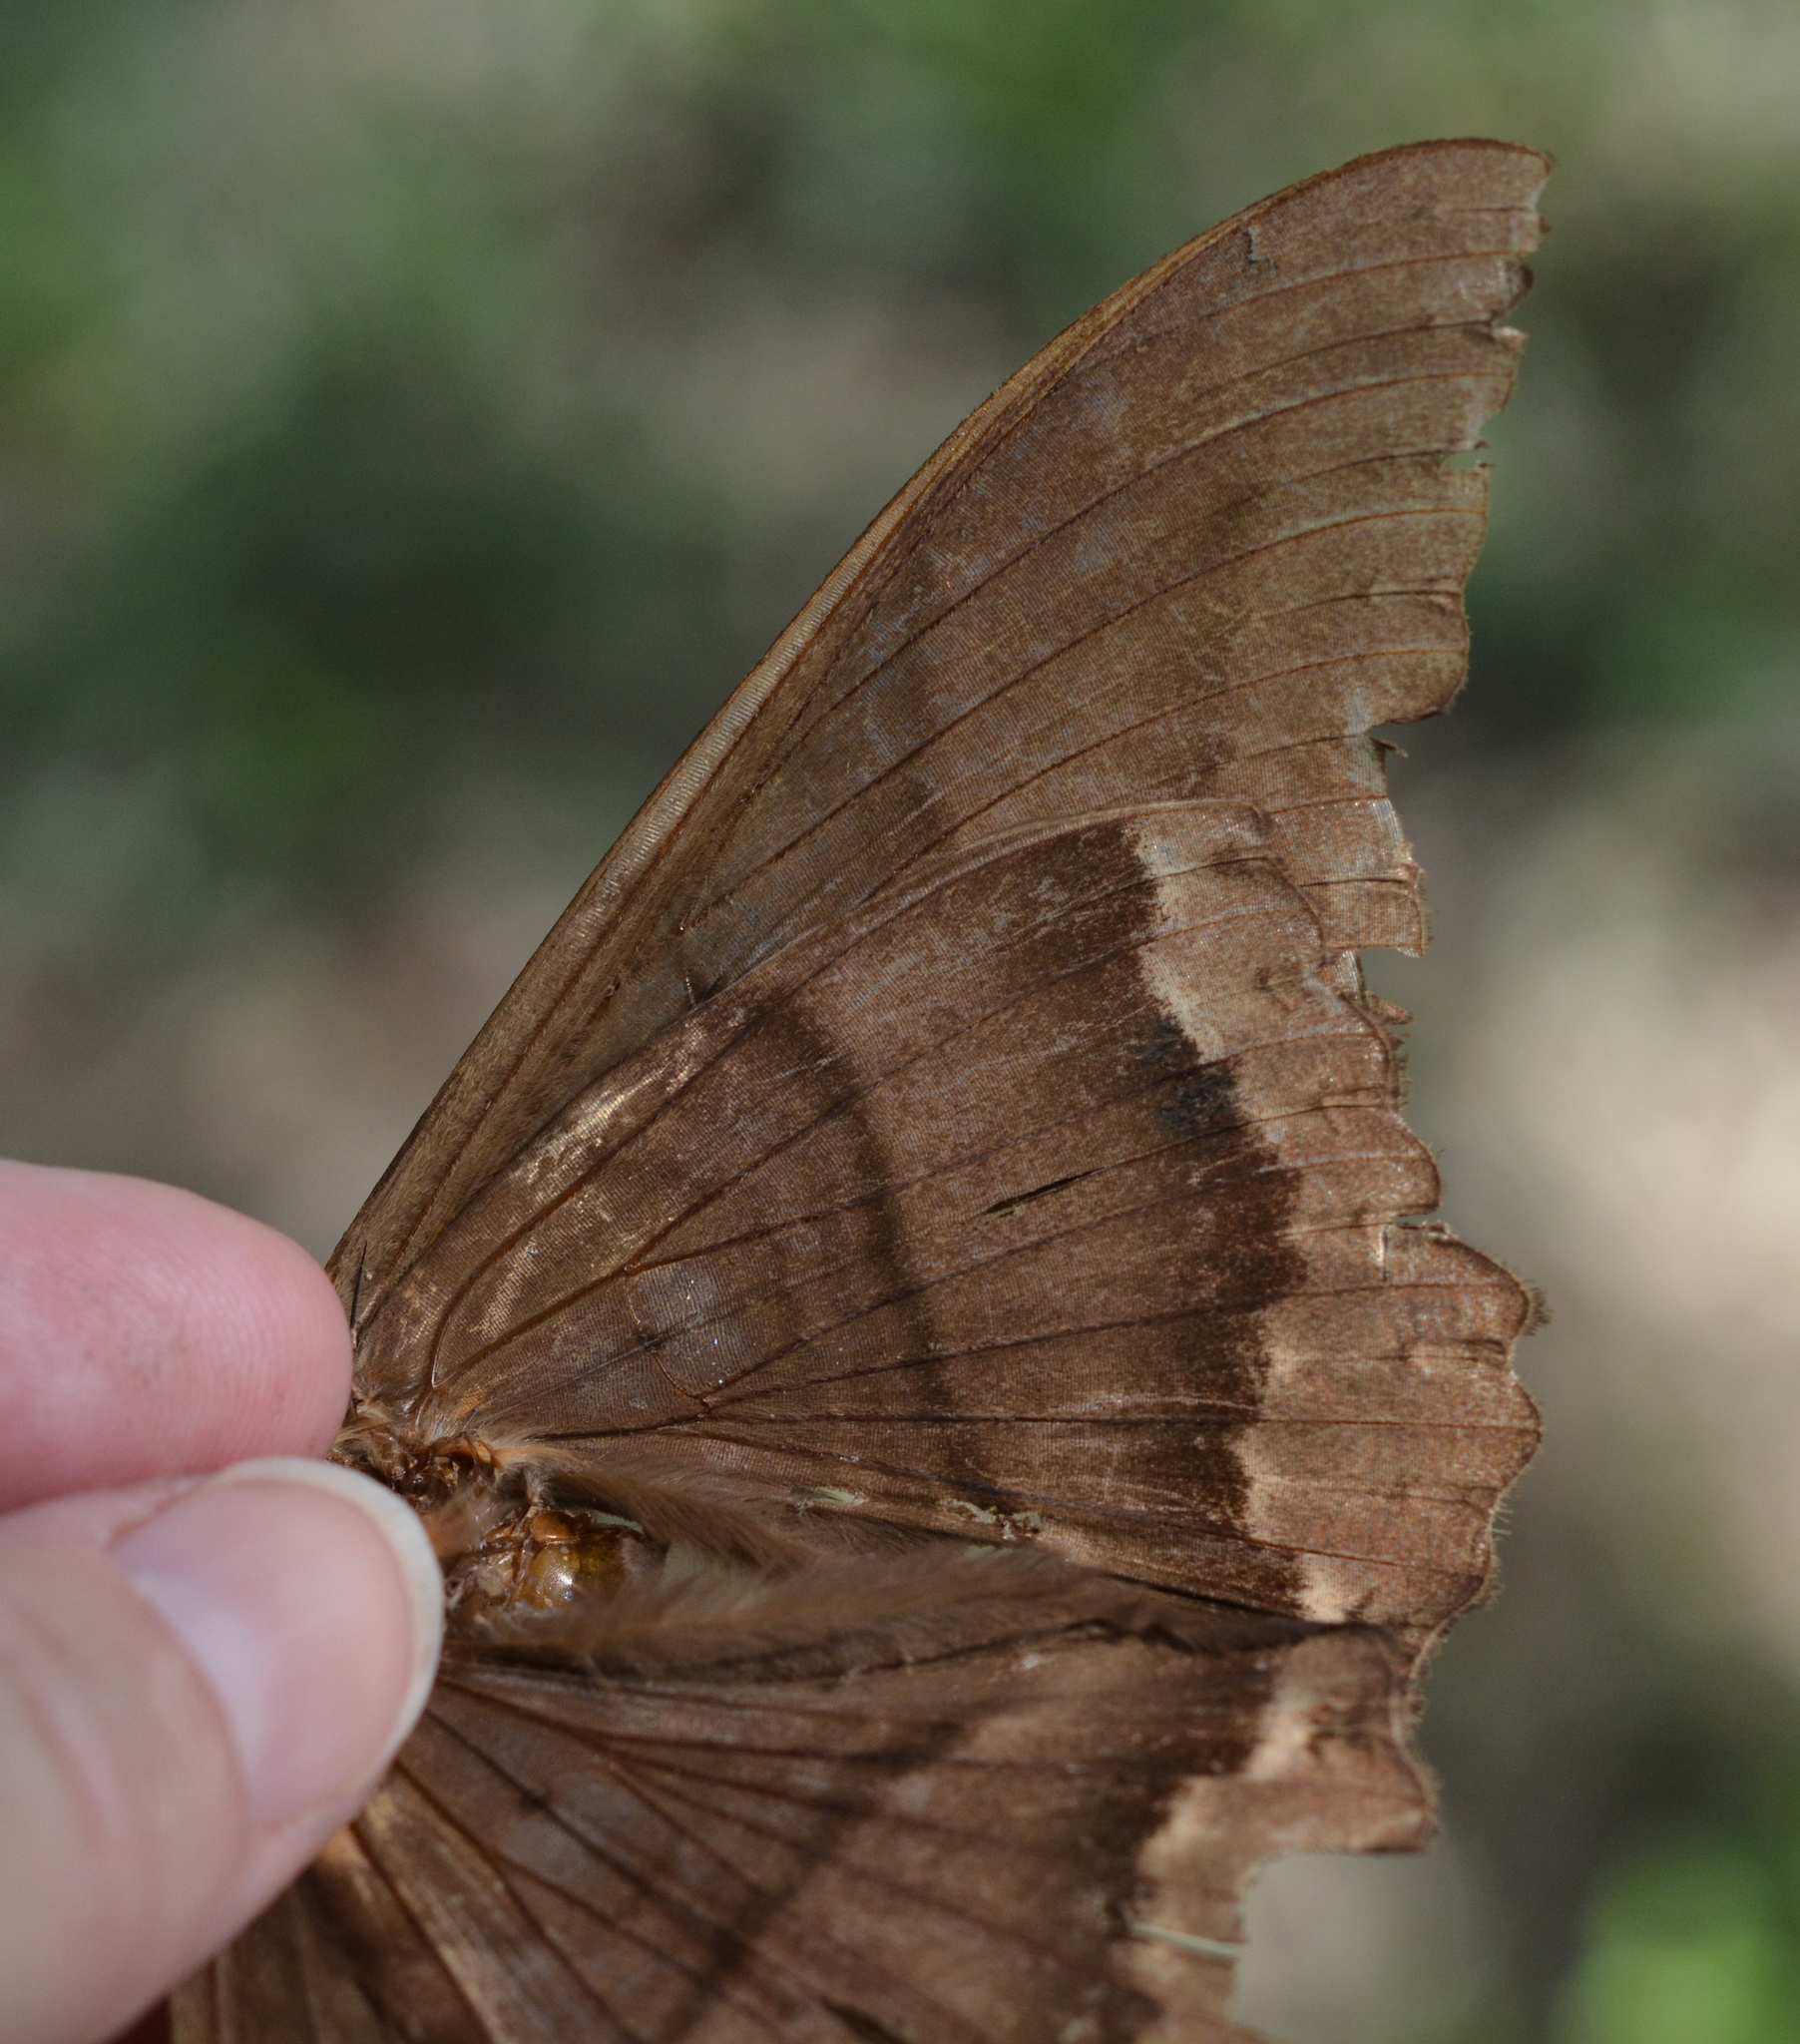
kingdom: Animalia
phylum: Arthropoda
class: Insecta
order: Lepidoptera
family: Erebidae
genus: Ascalapha
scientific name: Ascalapha odorata
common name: Black witch
